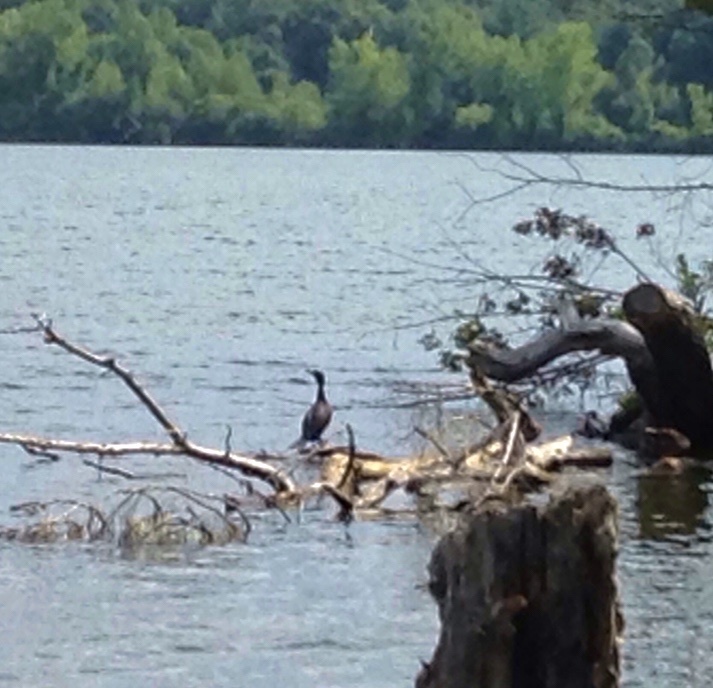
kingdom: Animalia
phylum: Chordata
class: Aves
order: Suliformes
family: Phalacrocoracidae
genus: Phalacrocorax
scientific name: Phalacrocorax auritus
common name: Double-crested cormorant
